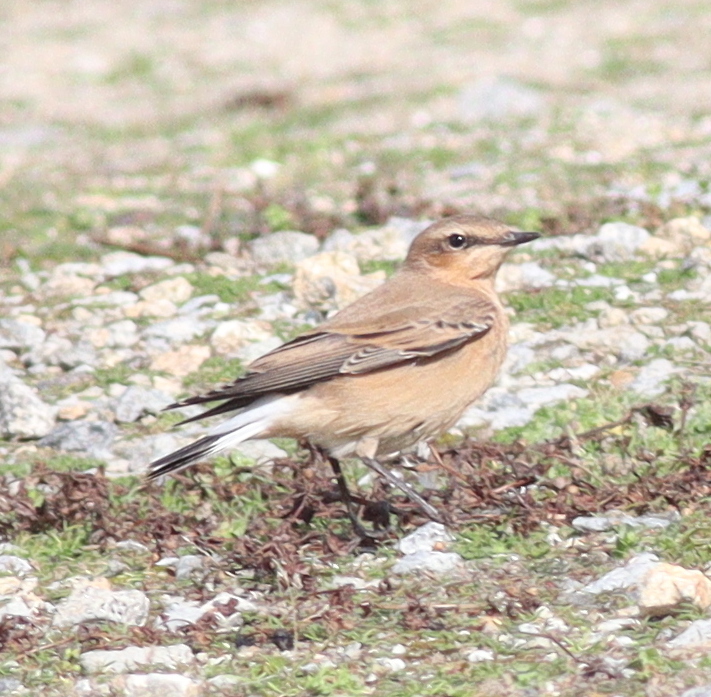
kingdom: Animalia
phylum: Chordata
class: Aves
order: Passeriformes
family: Muscicapidae
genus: Oenanthe
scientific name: Oenanthe oenanthe
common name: Northern wheatear
